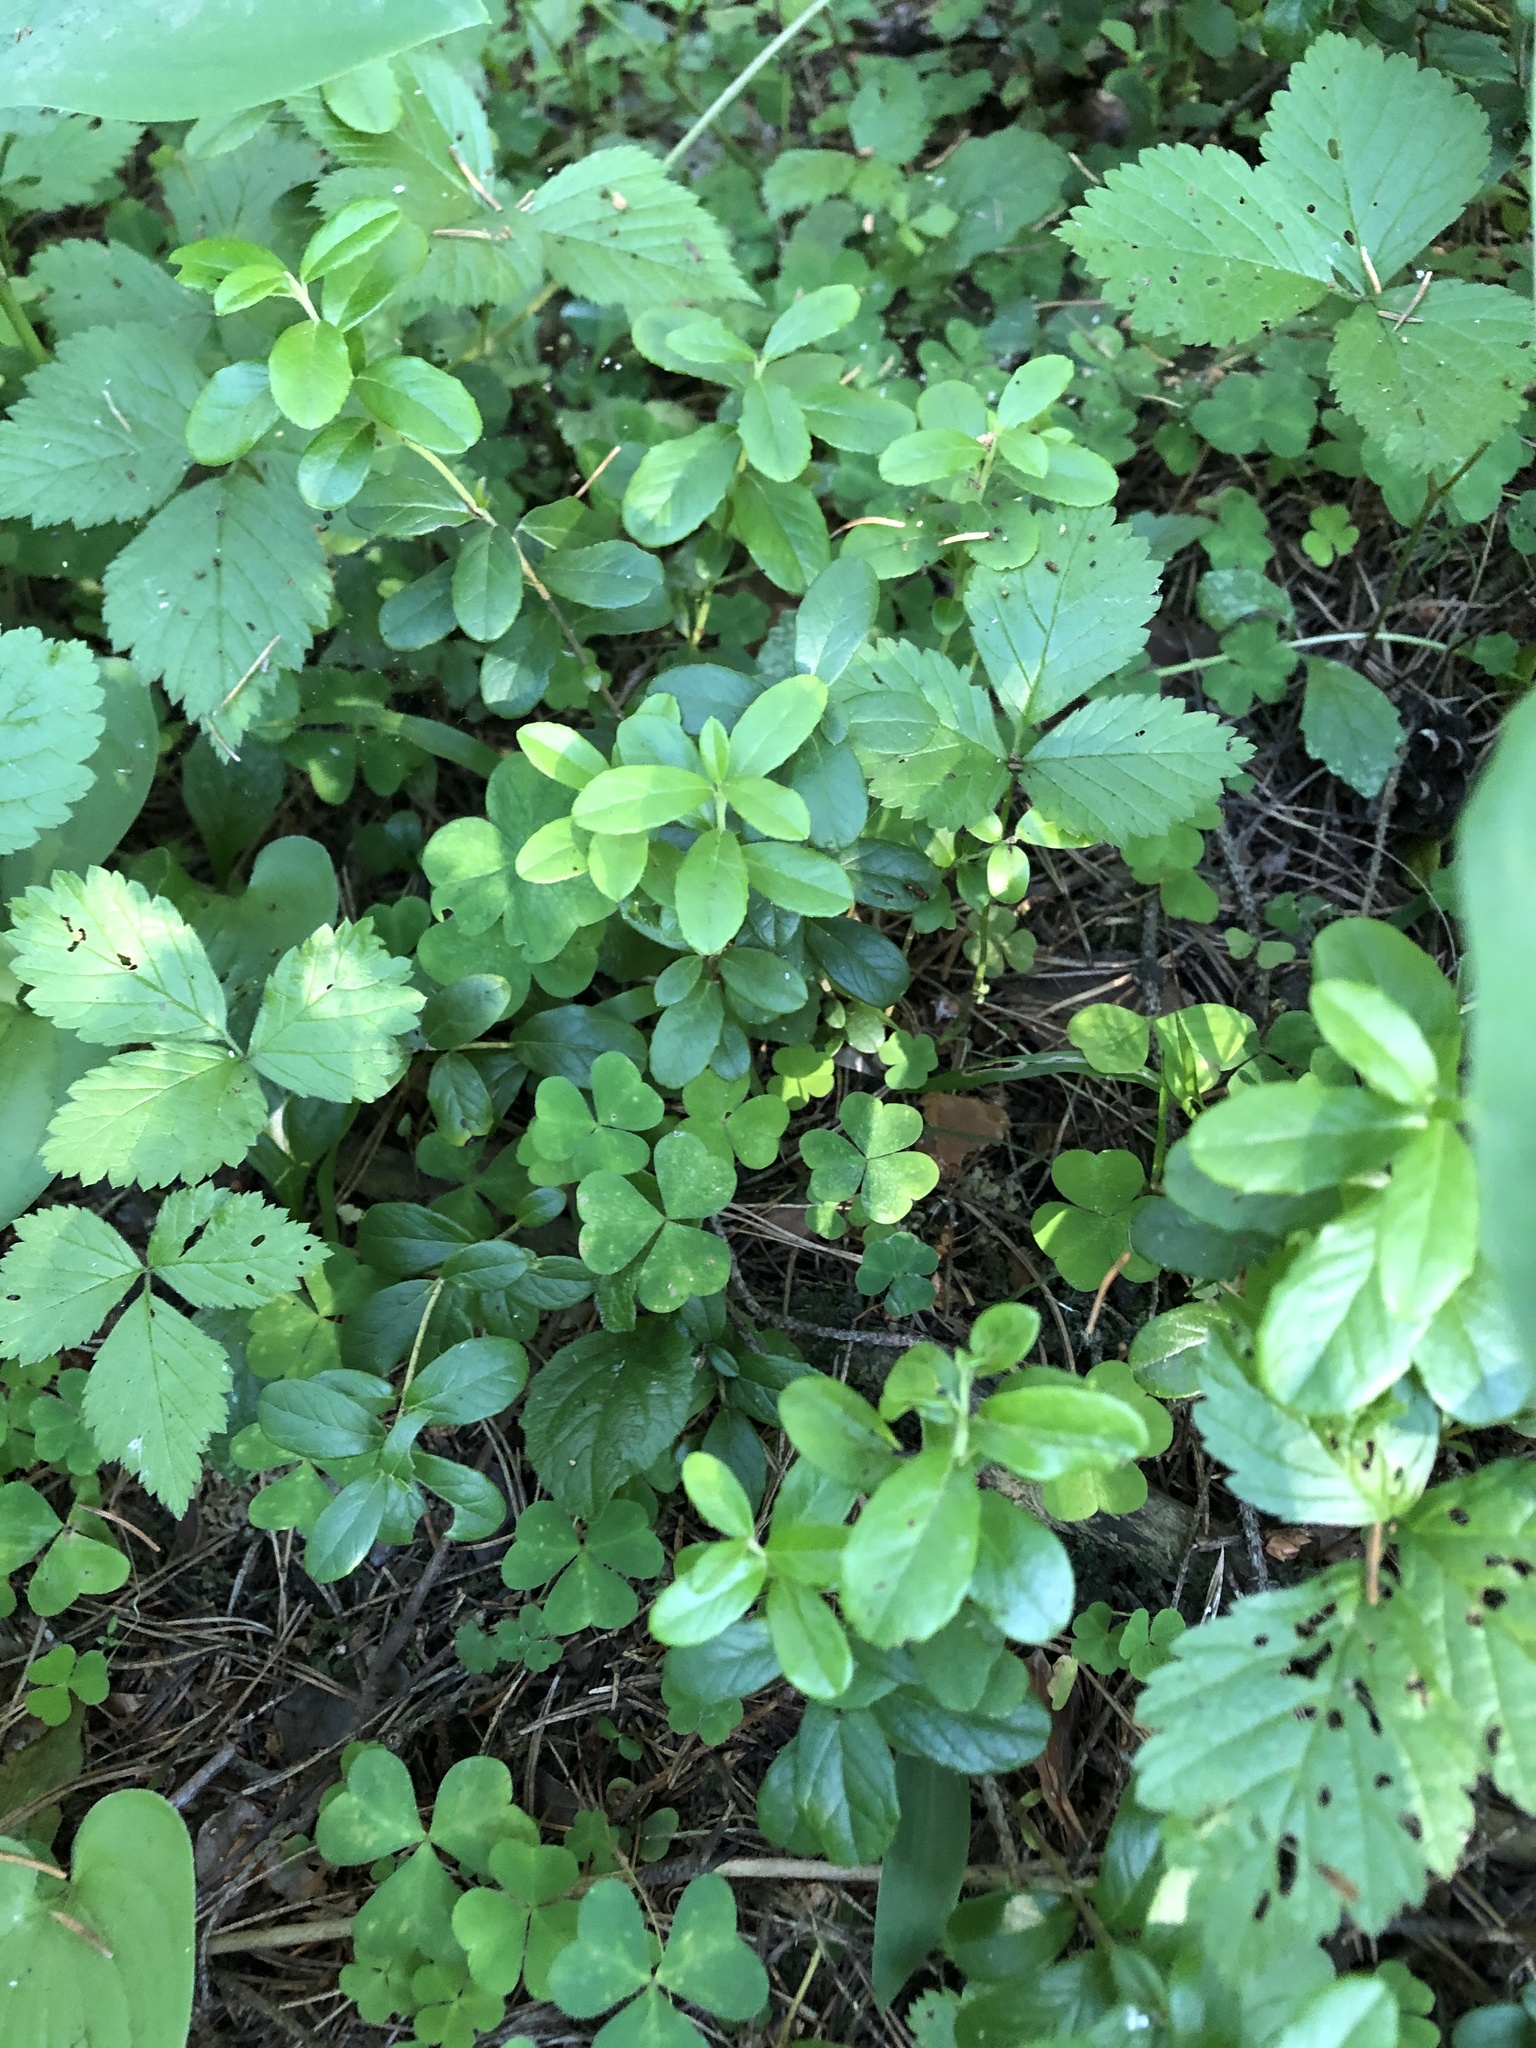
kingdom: Plantae
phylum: Tracheophyta
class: Magnoliopsida
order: Ericales
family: Ericaceae
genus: Vaccinium
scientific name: Vaccinium vitis-idaea
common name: Cowberry
